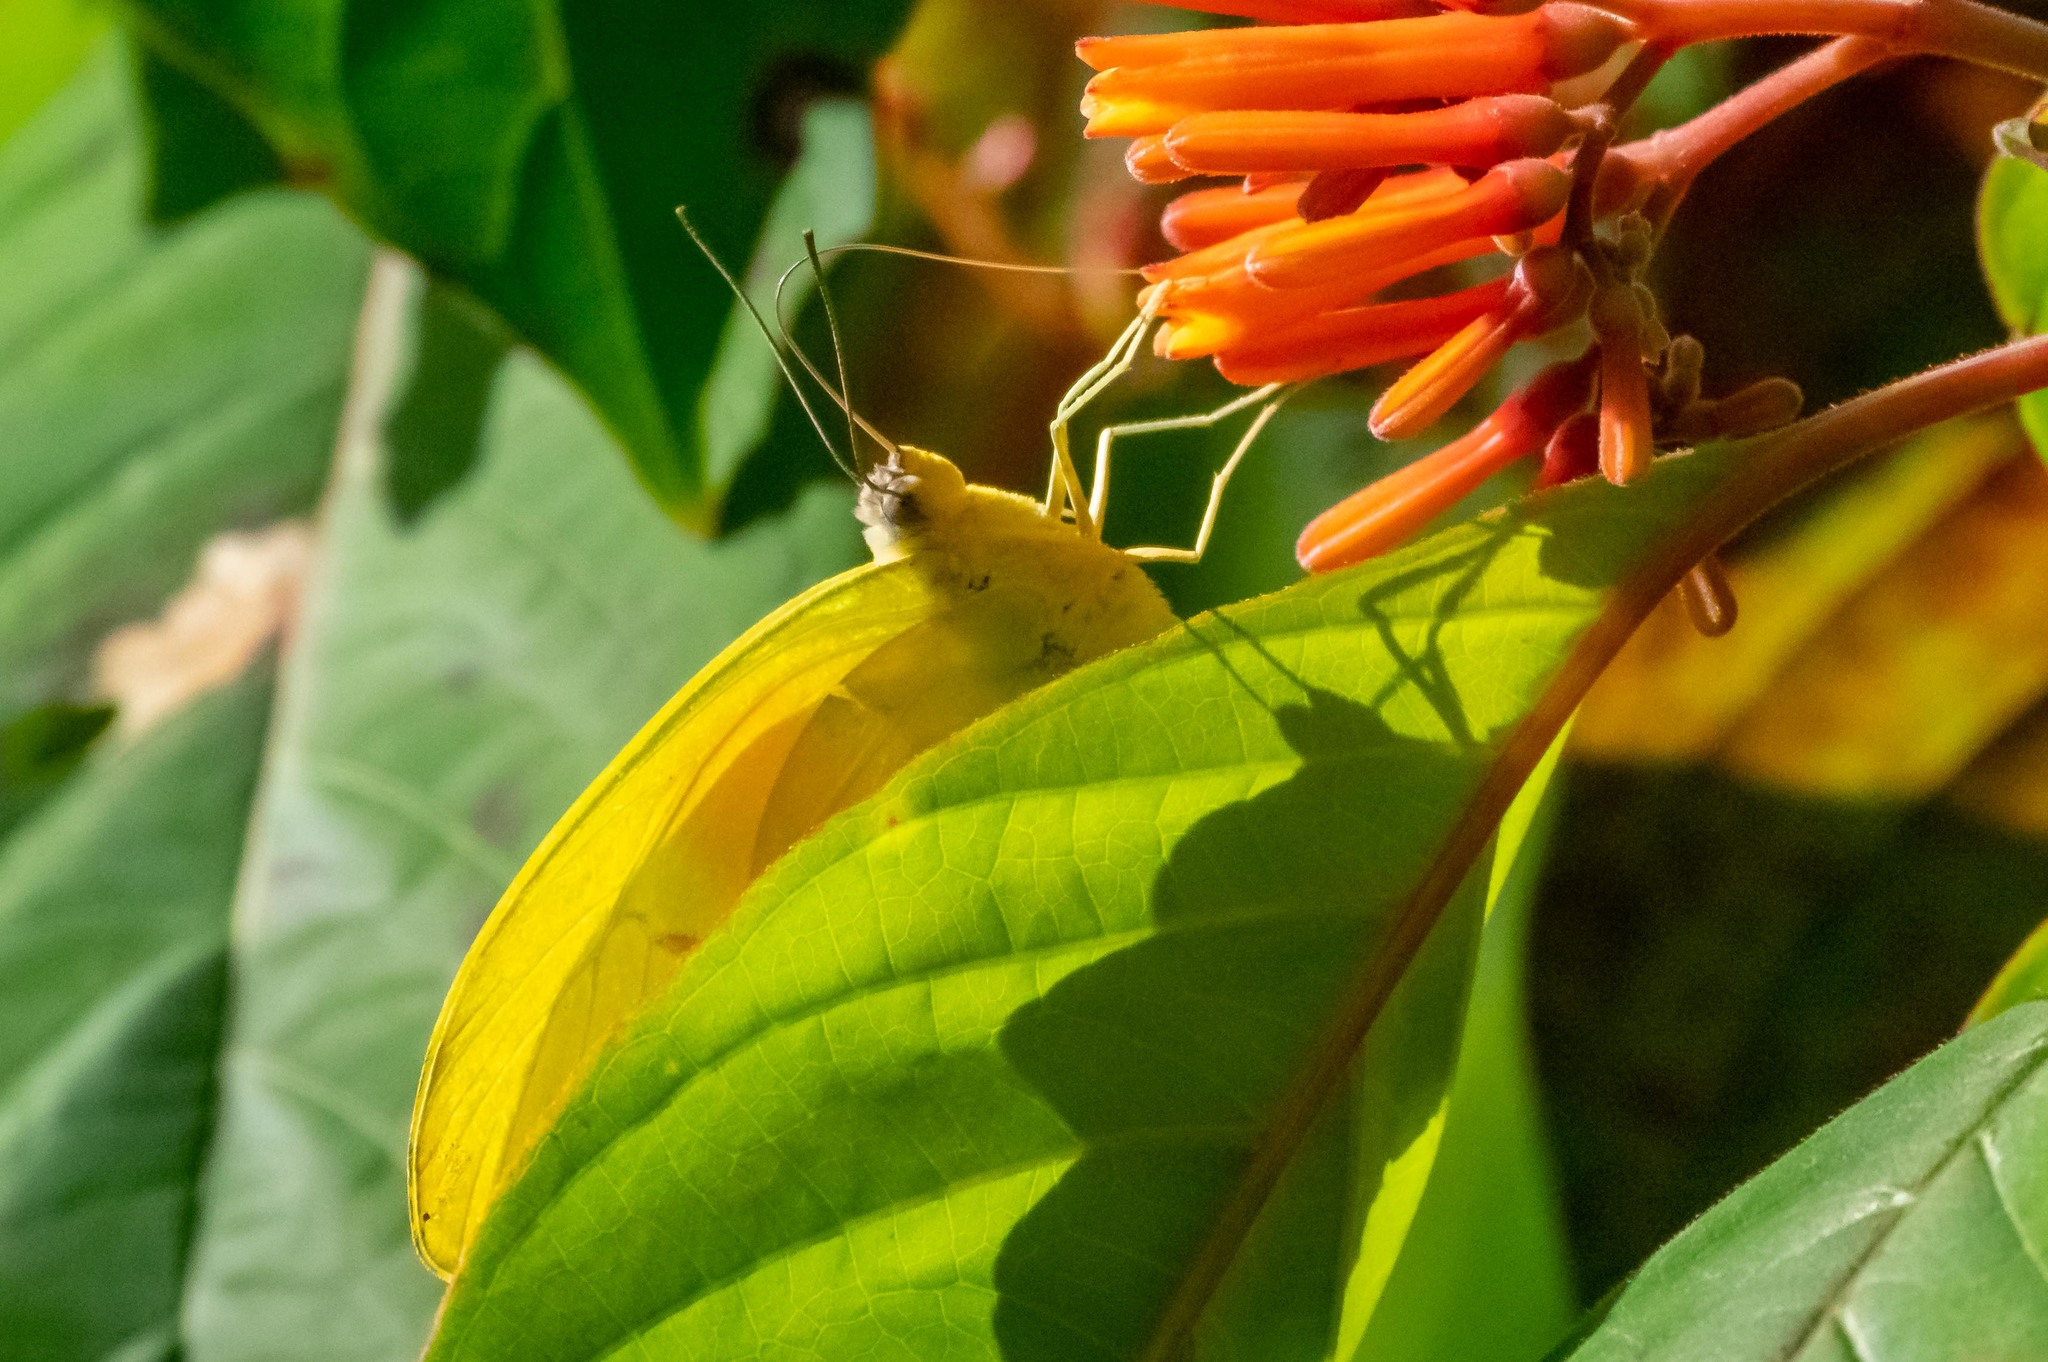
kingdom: Animalia
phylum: Arthropoda
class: Insecta
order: Lepidoptera
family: Pieridae
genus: Phoebis
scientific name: Phoebis philea
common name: Orange-barred giant sulphur
